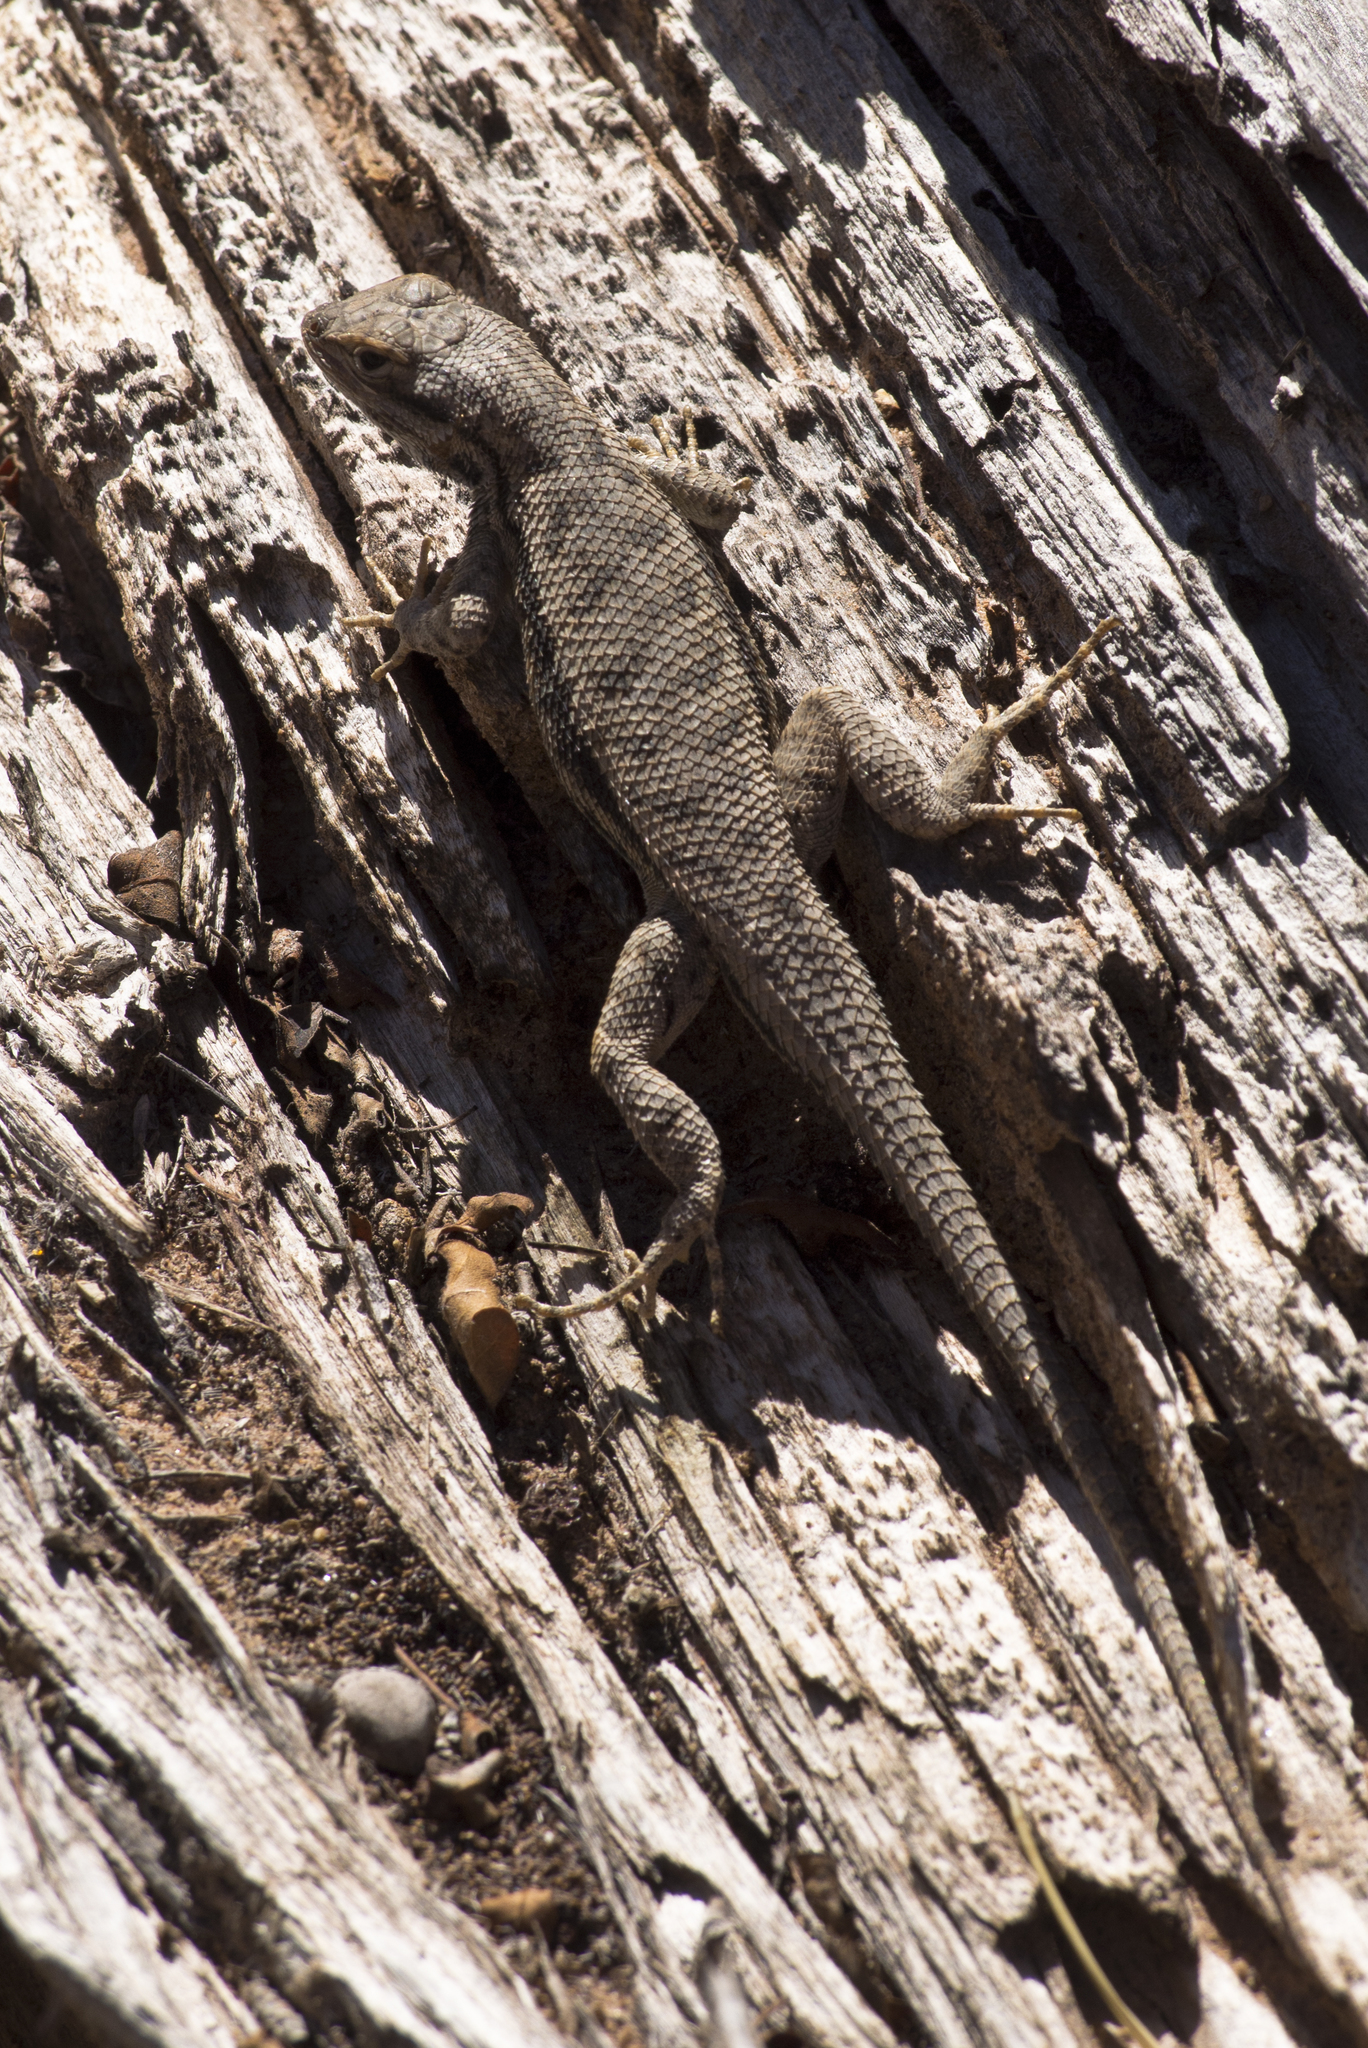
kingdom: Animalia
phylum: Chordata
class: Squamata
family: Phrynosomatidae
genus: Sceloporus
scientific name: Sceloporus tristichus
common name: Plateau fence lizard
